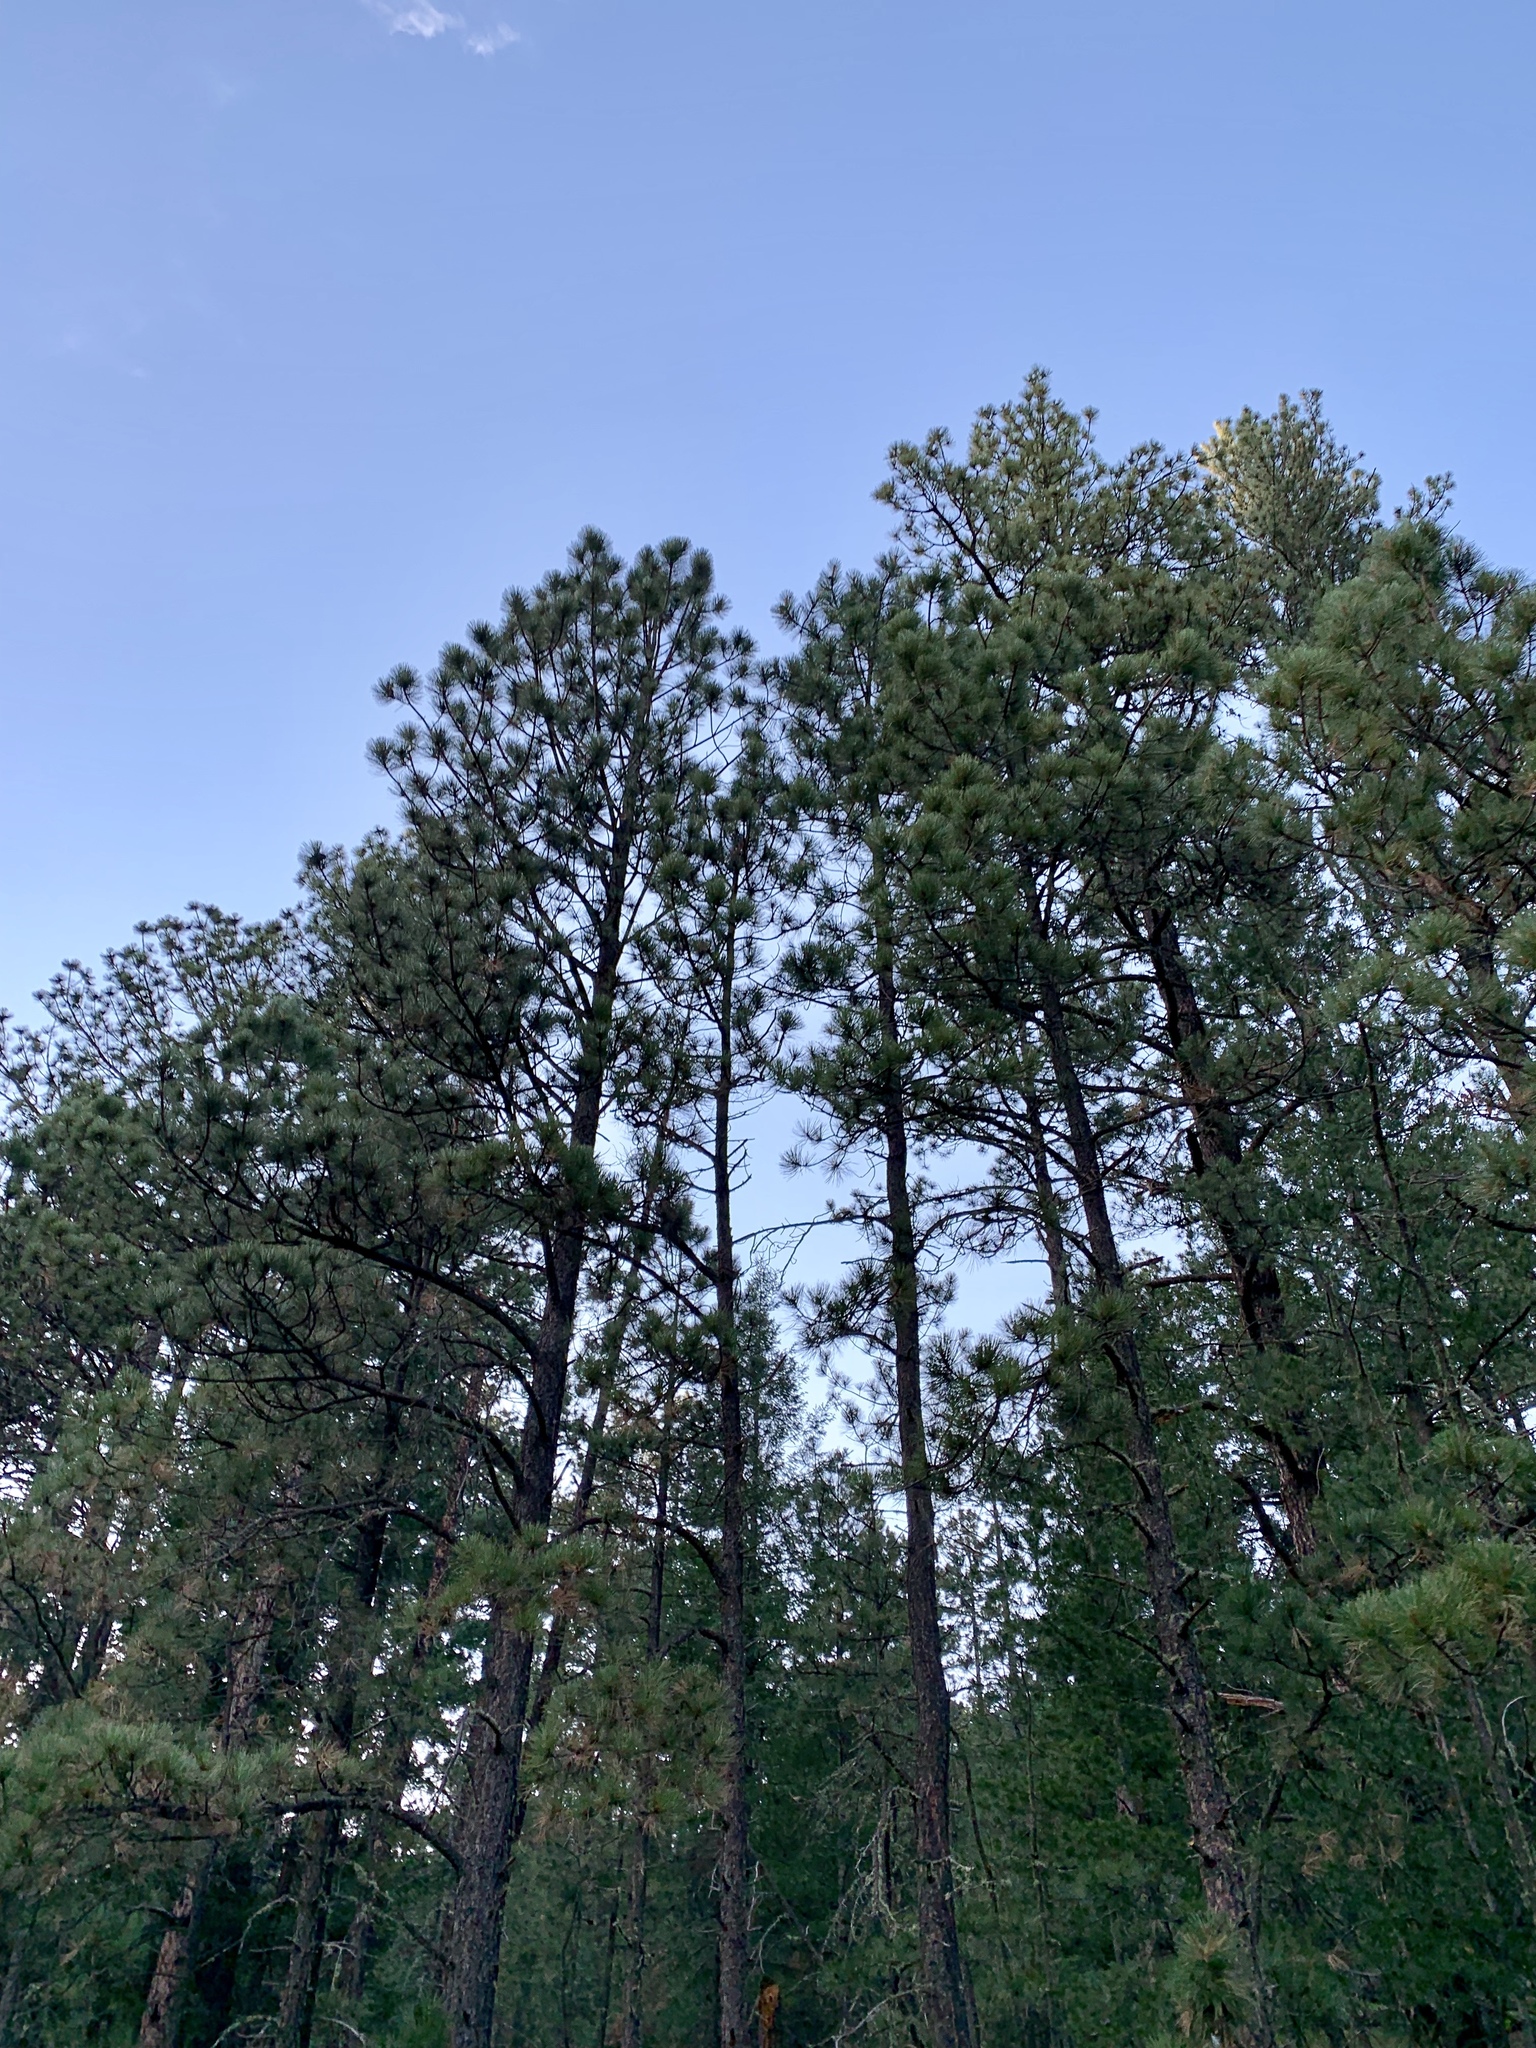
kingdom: Plantae
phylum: Tracheophyta
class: Pinopsida
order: Pinales
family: Pinaceae
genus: Pinus
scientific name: Pinus ponderosa
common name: Western yellow-pine
